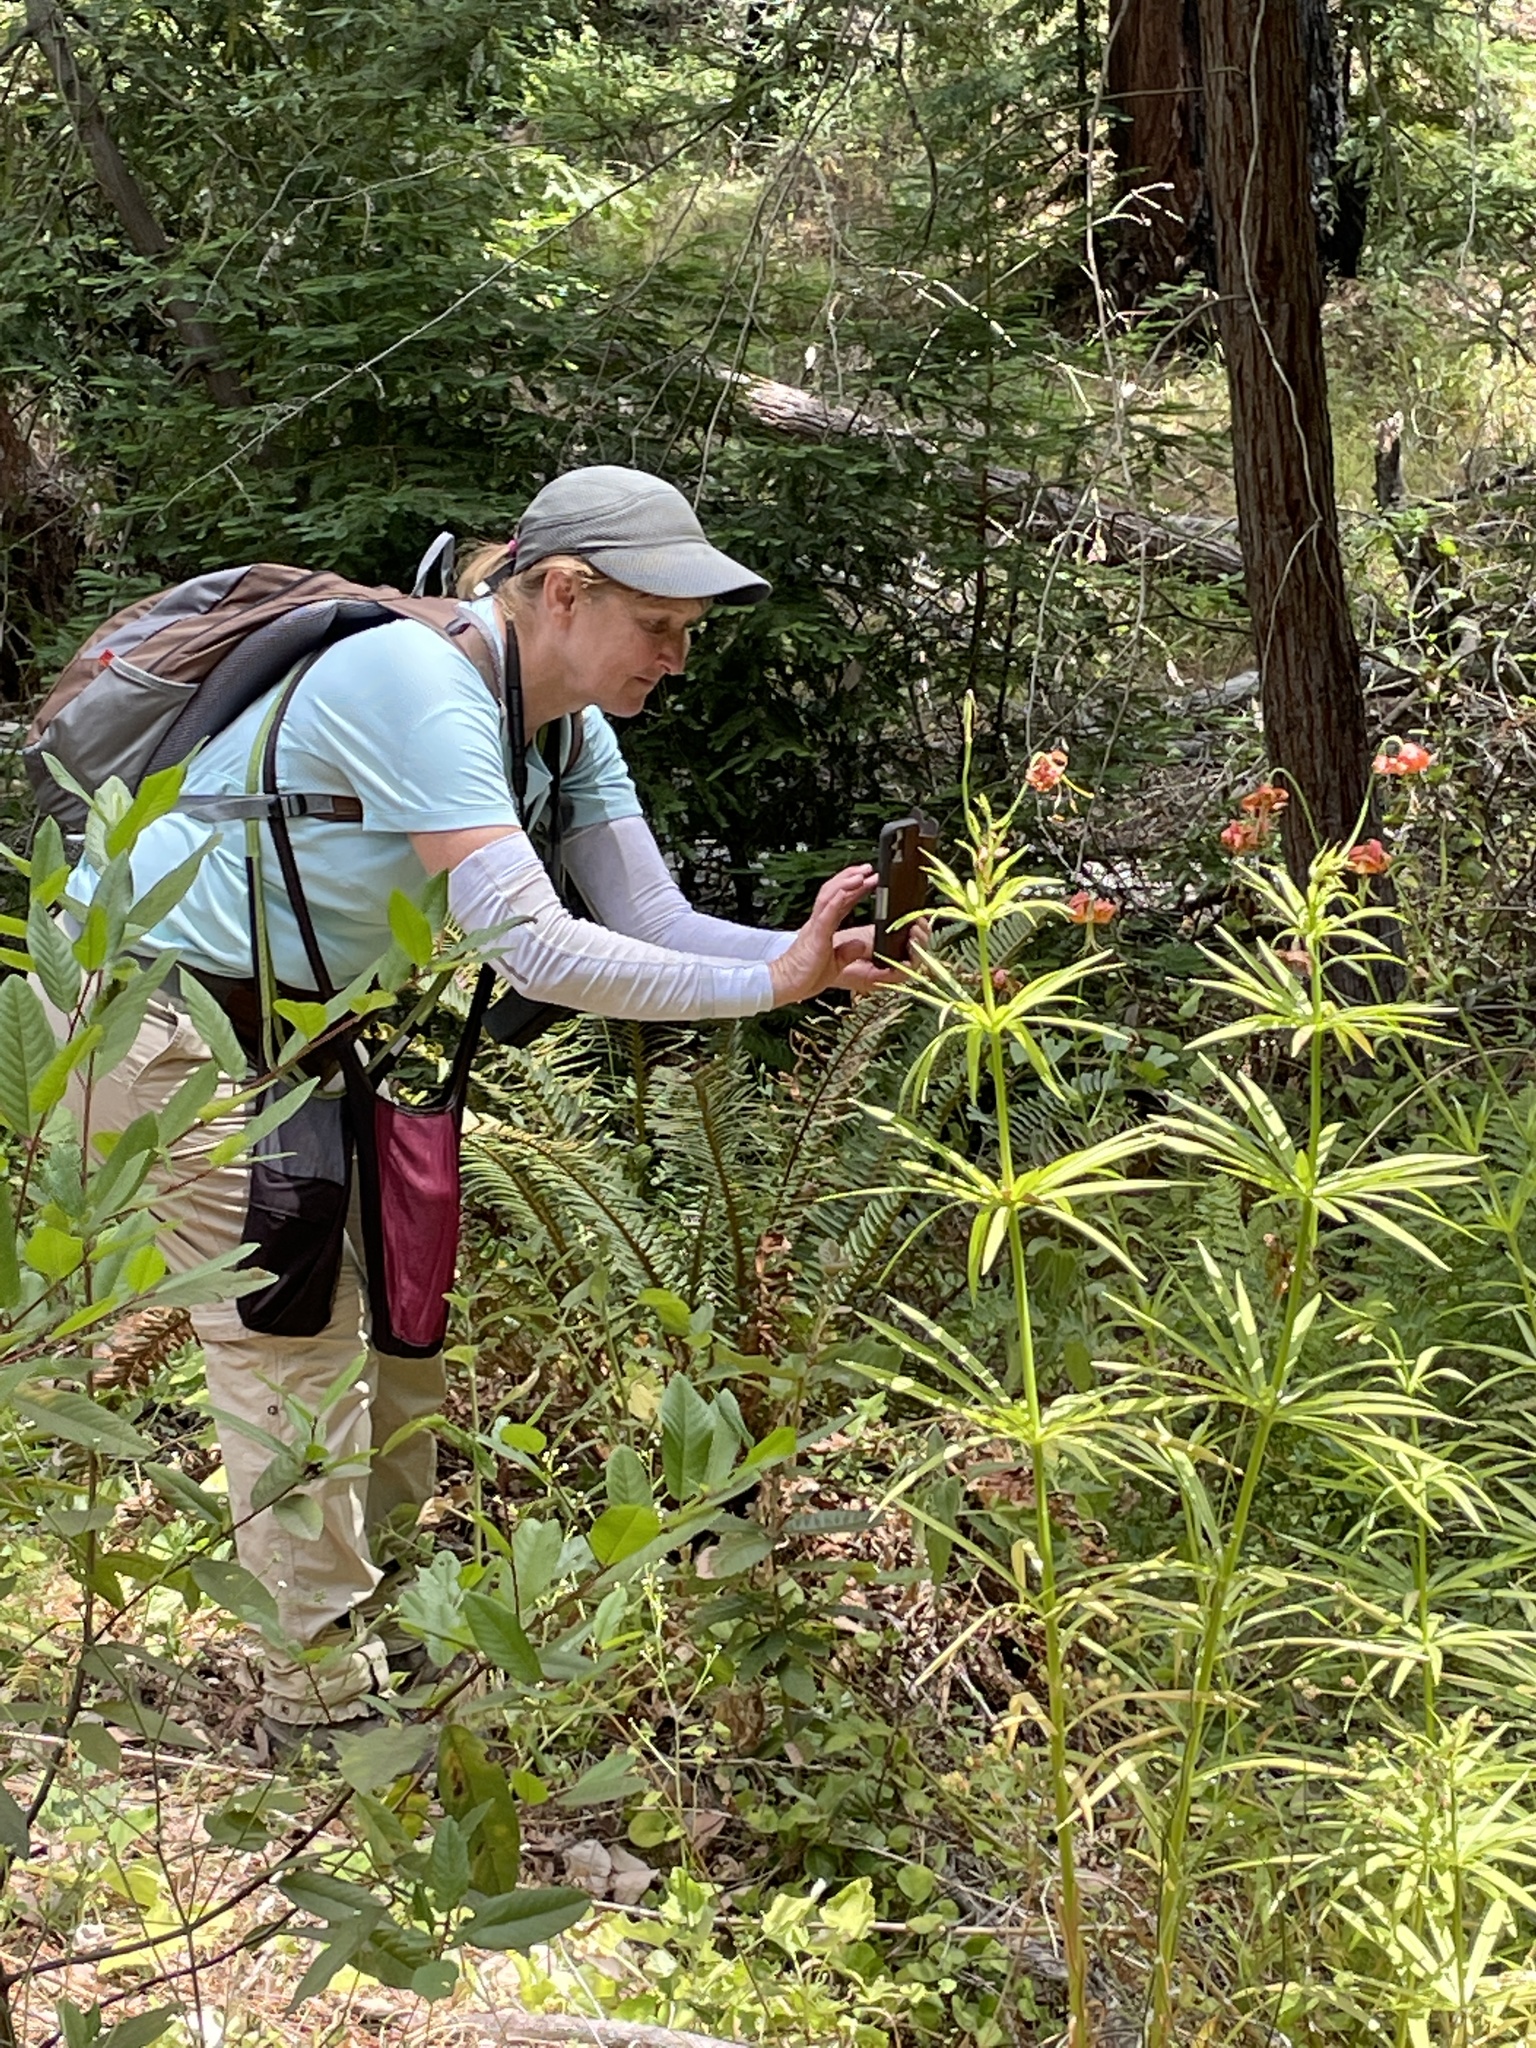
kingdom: Plantae
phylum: Tracheophyta
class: Liliopsida
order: Liliales
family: Liliaceae
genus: Lilium
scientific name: Lilium pardalinum
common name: Panther lily
